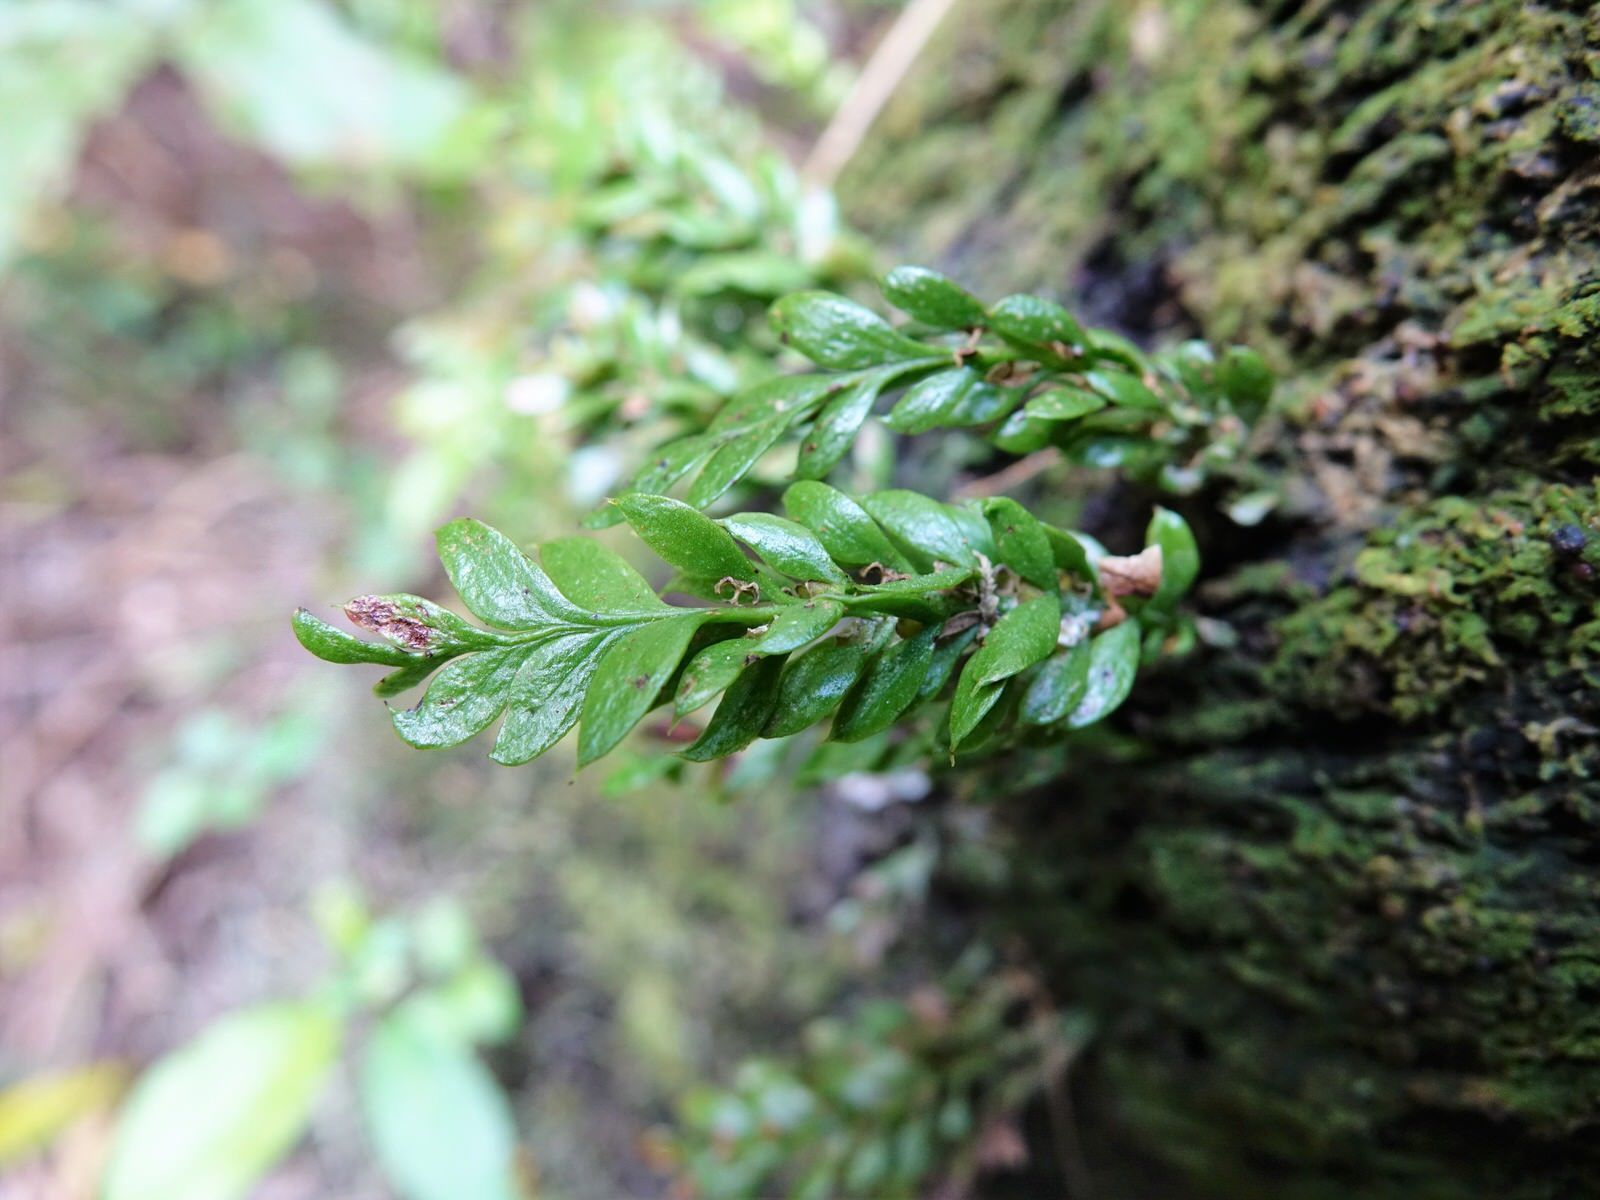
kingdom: Plantae
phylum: Tracheophyta
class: Polypodiopsida
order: Psilotales
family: Psilotaceae
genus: Tmesipteris
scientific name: Tmesipteris lanceolata
